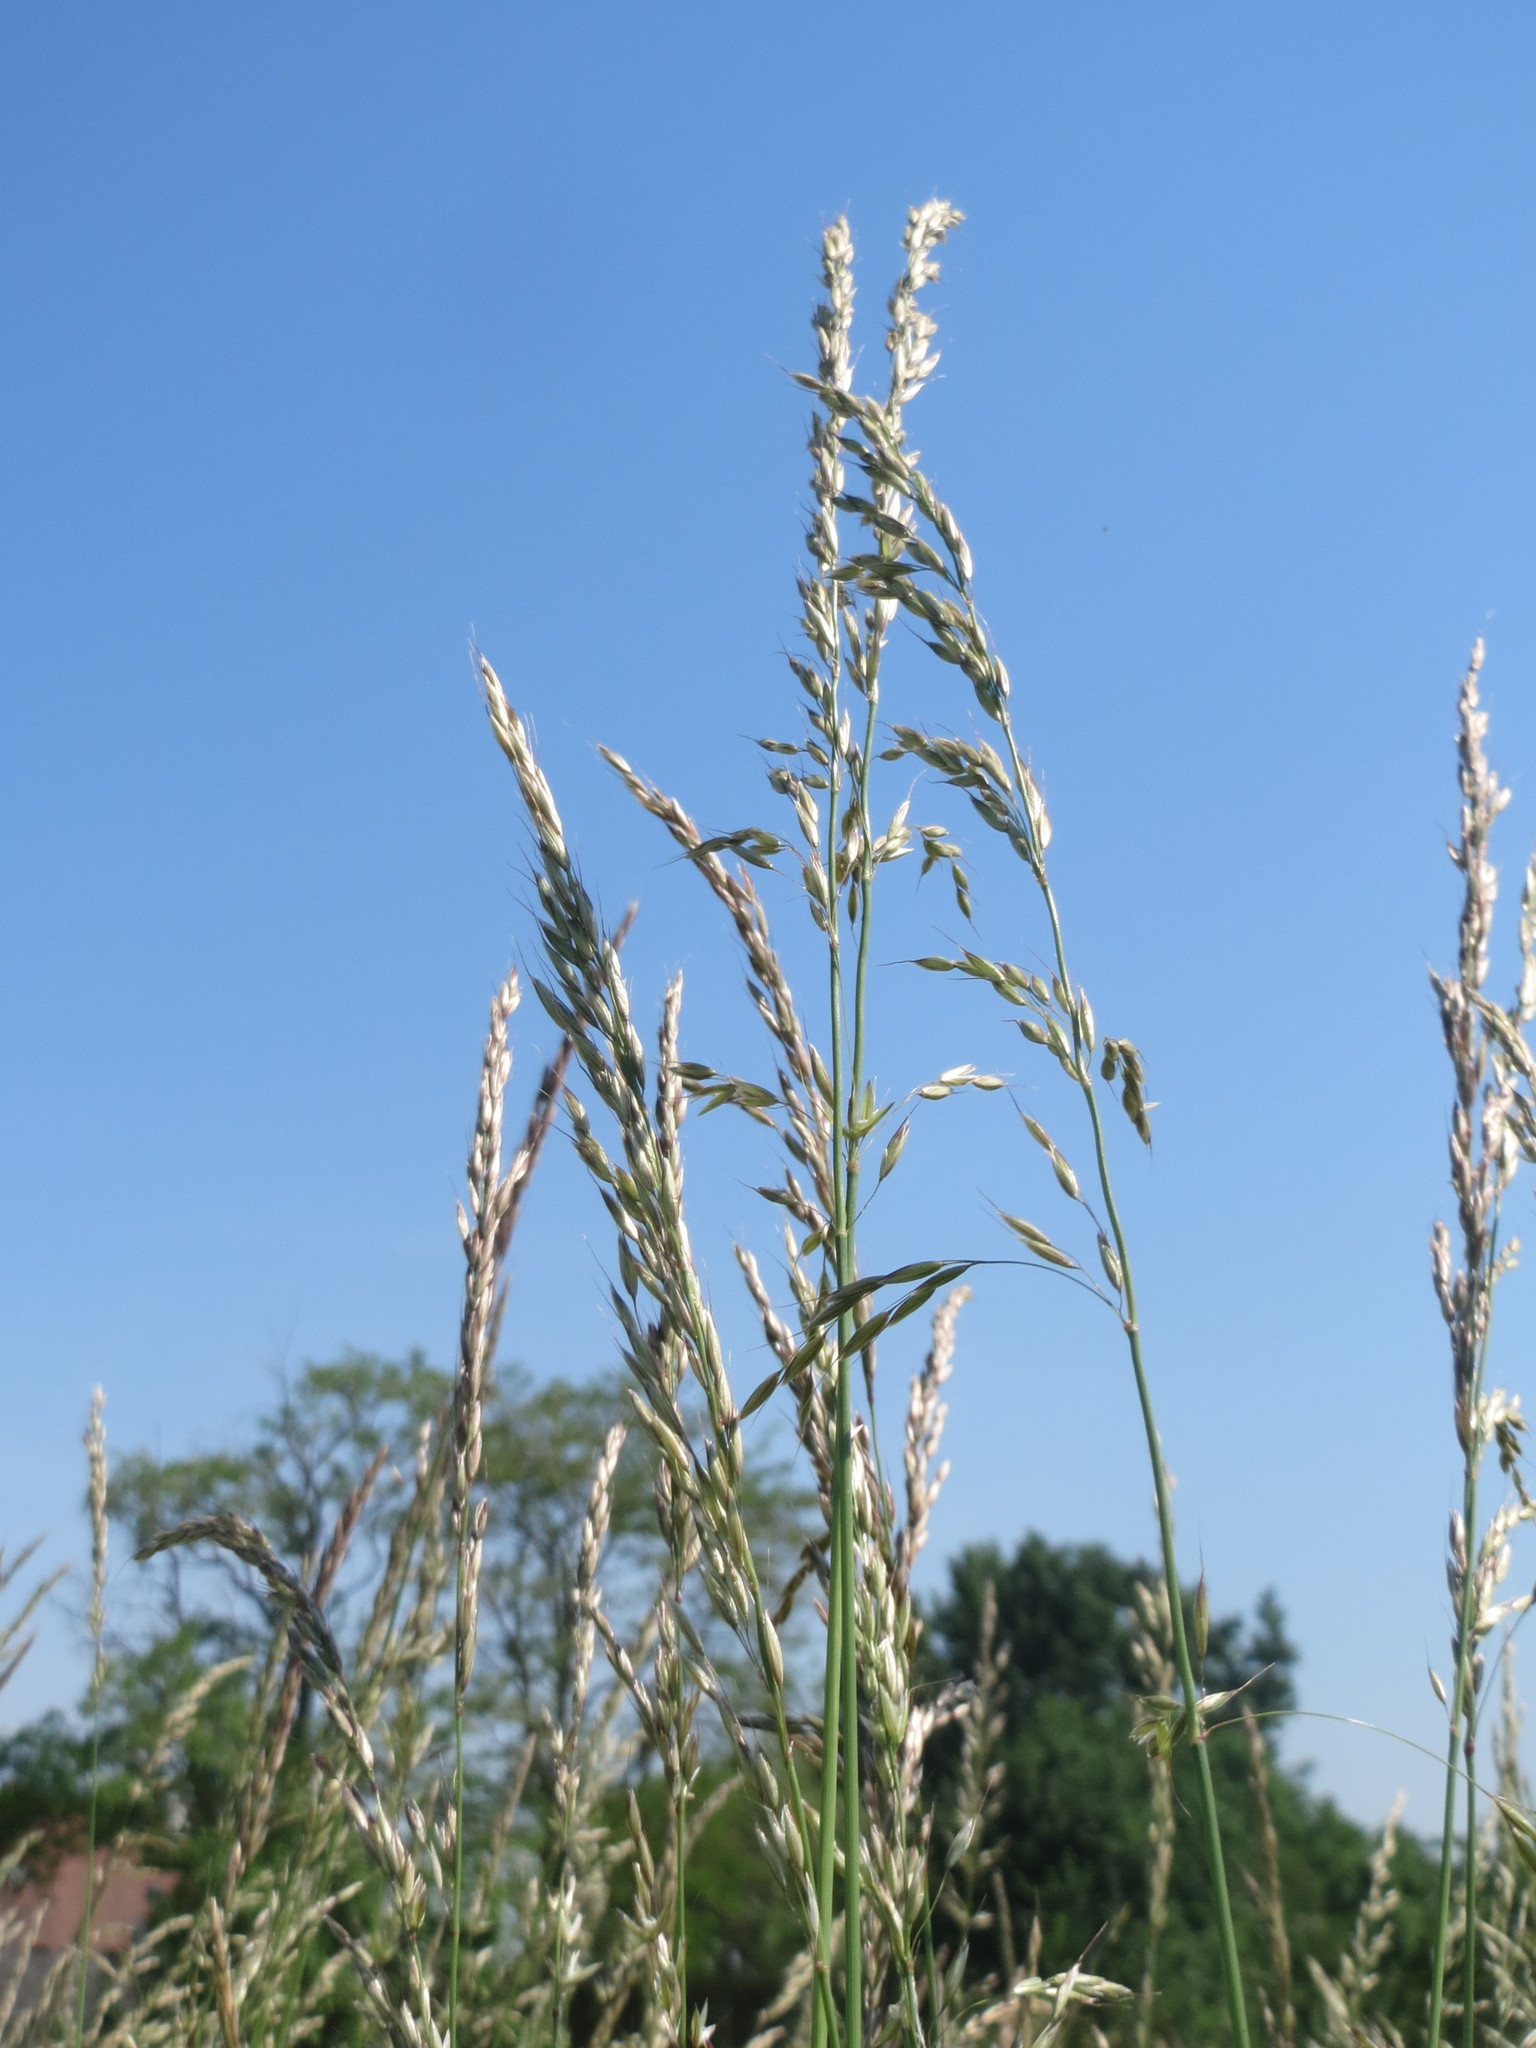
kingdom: Plantae
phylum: Tracheophyta
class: Liliopsida
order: Poales
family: Poaceae
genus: Arrhenatherum
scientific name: Arrhenatherum elatius
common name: Tall oatgrass
